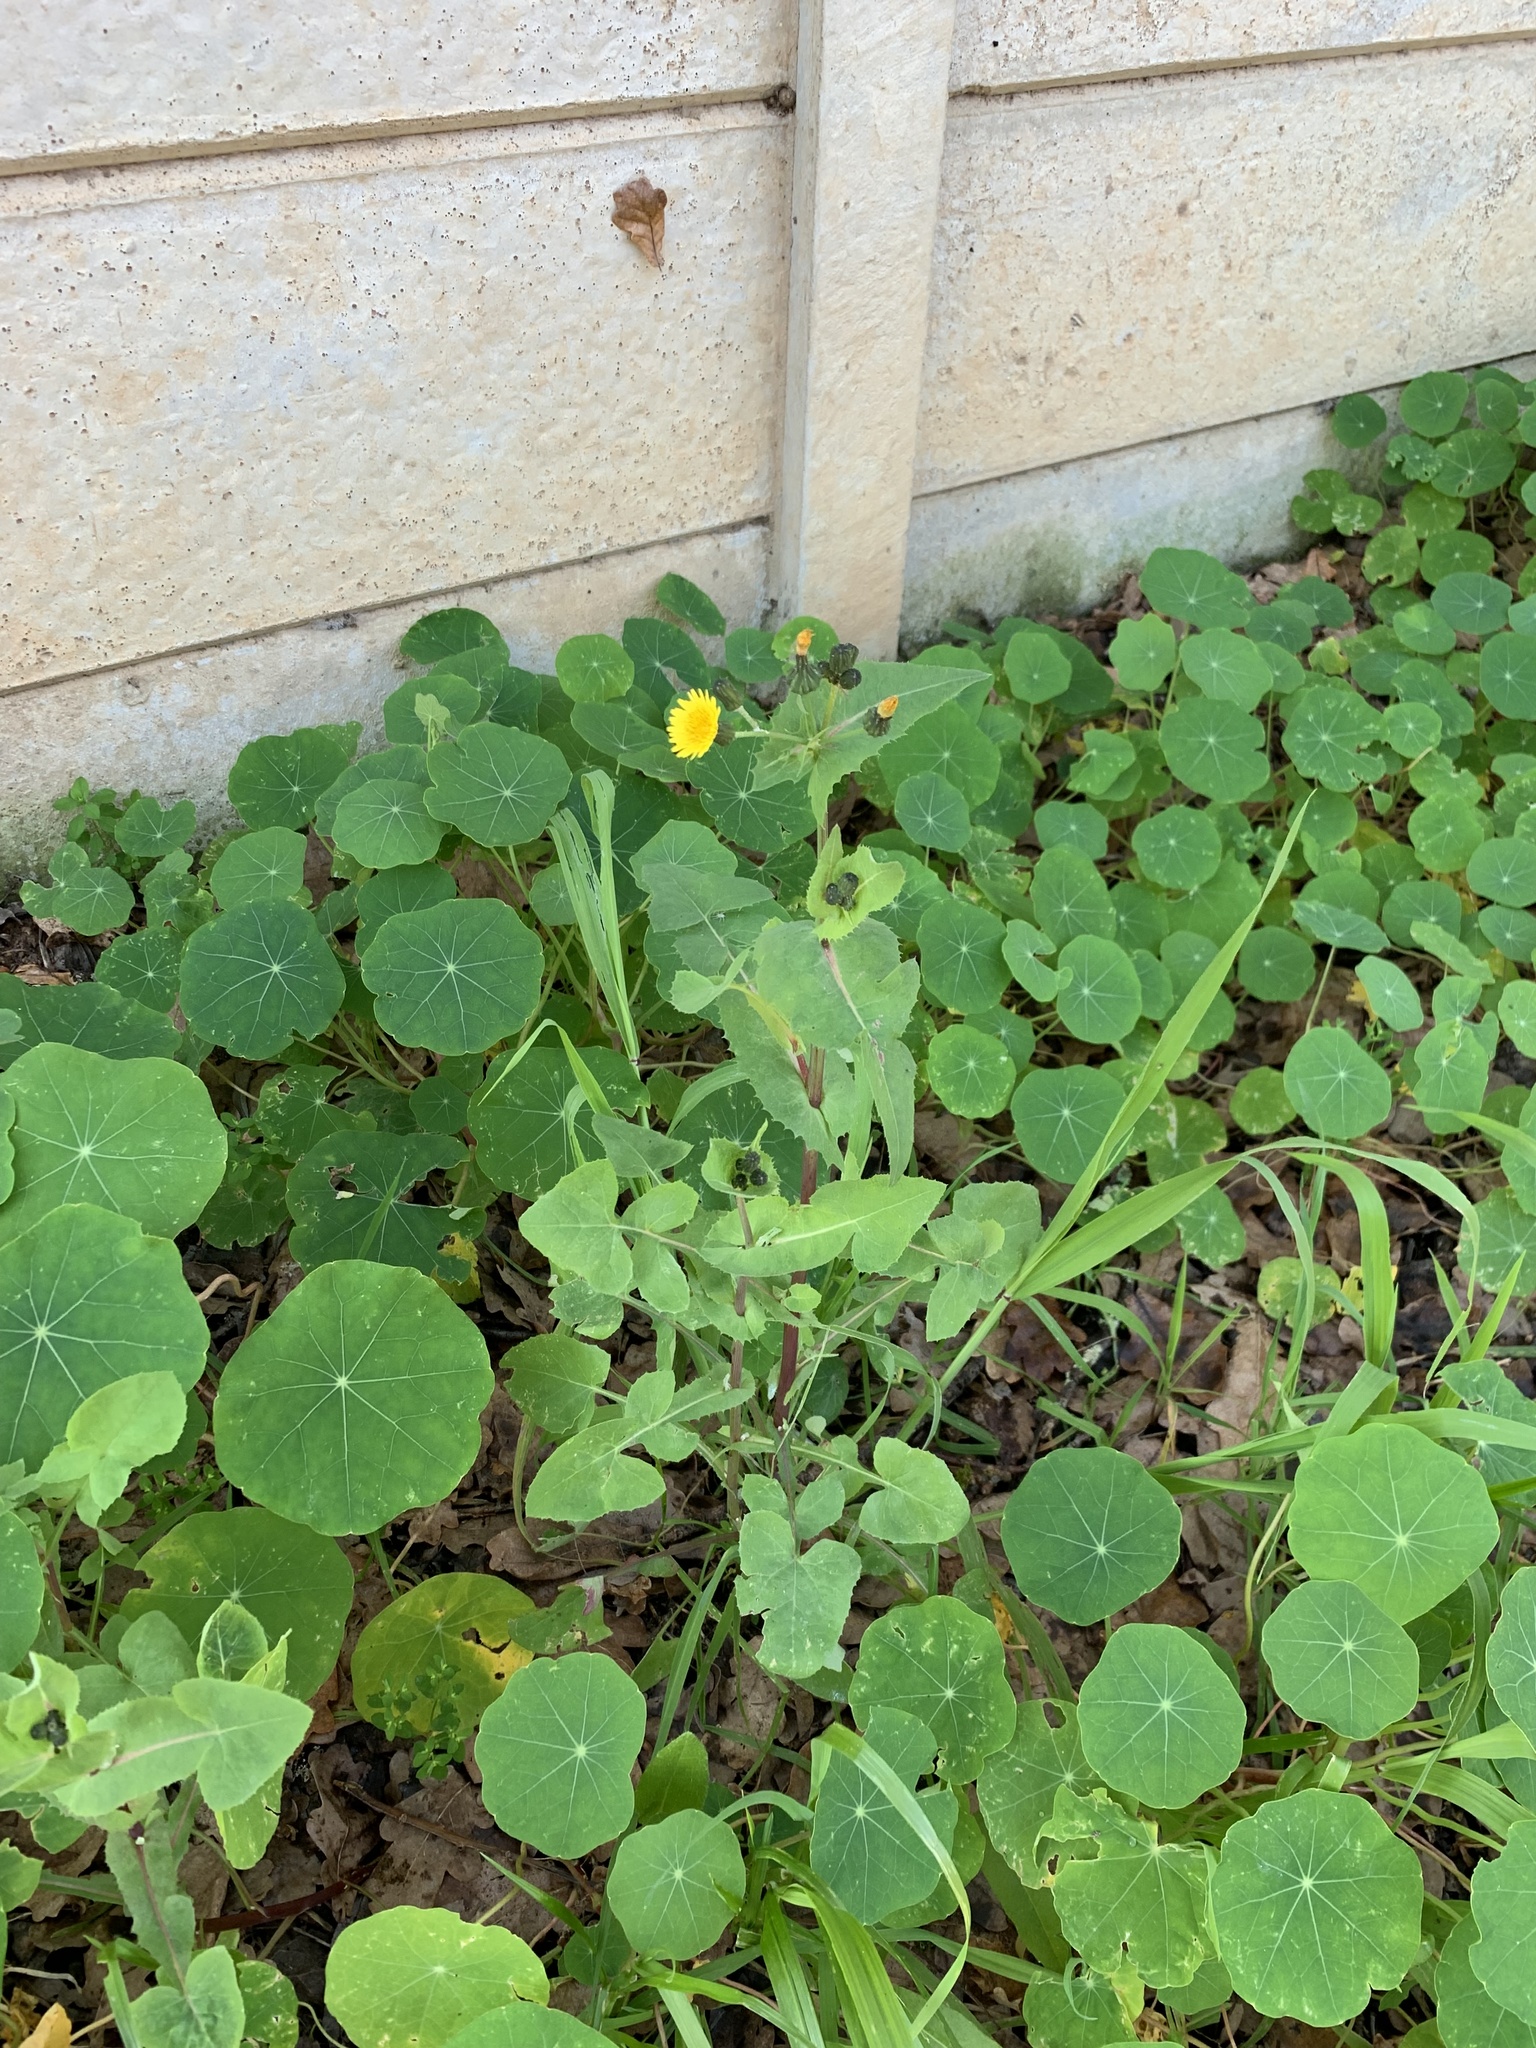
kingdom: Plantae
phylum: Tracheophyta
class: Magnoliopsida
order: Asterales
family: Asteraceae
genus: Sonchus
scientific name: Sonchus oleraceus
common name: Common sowthistle
